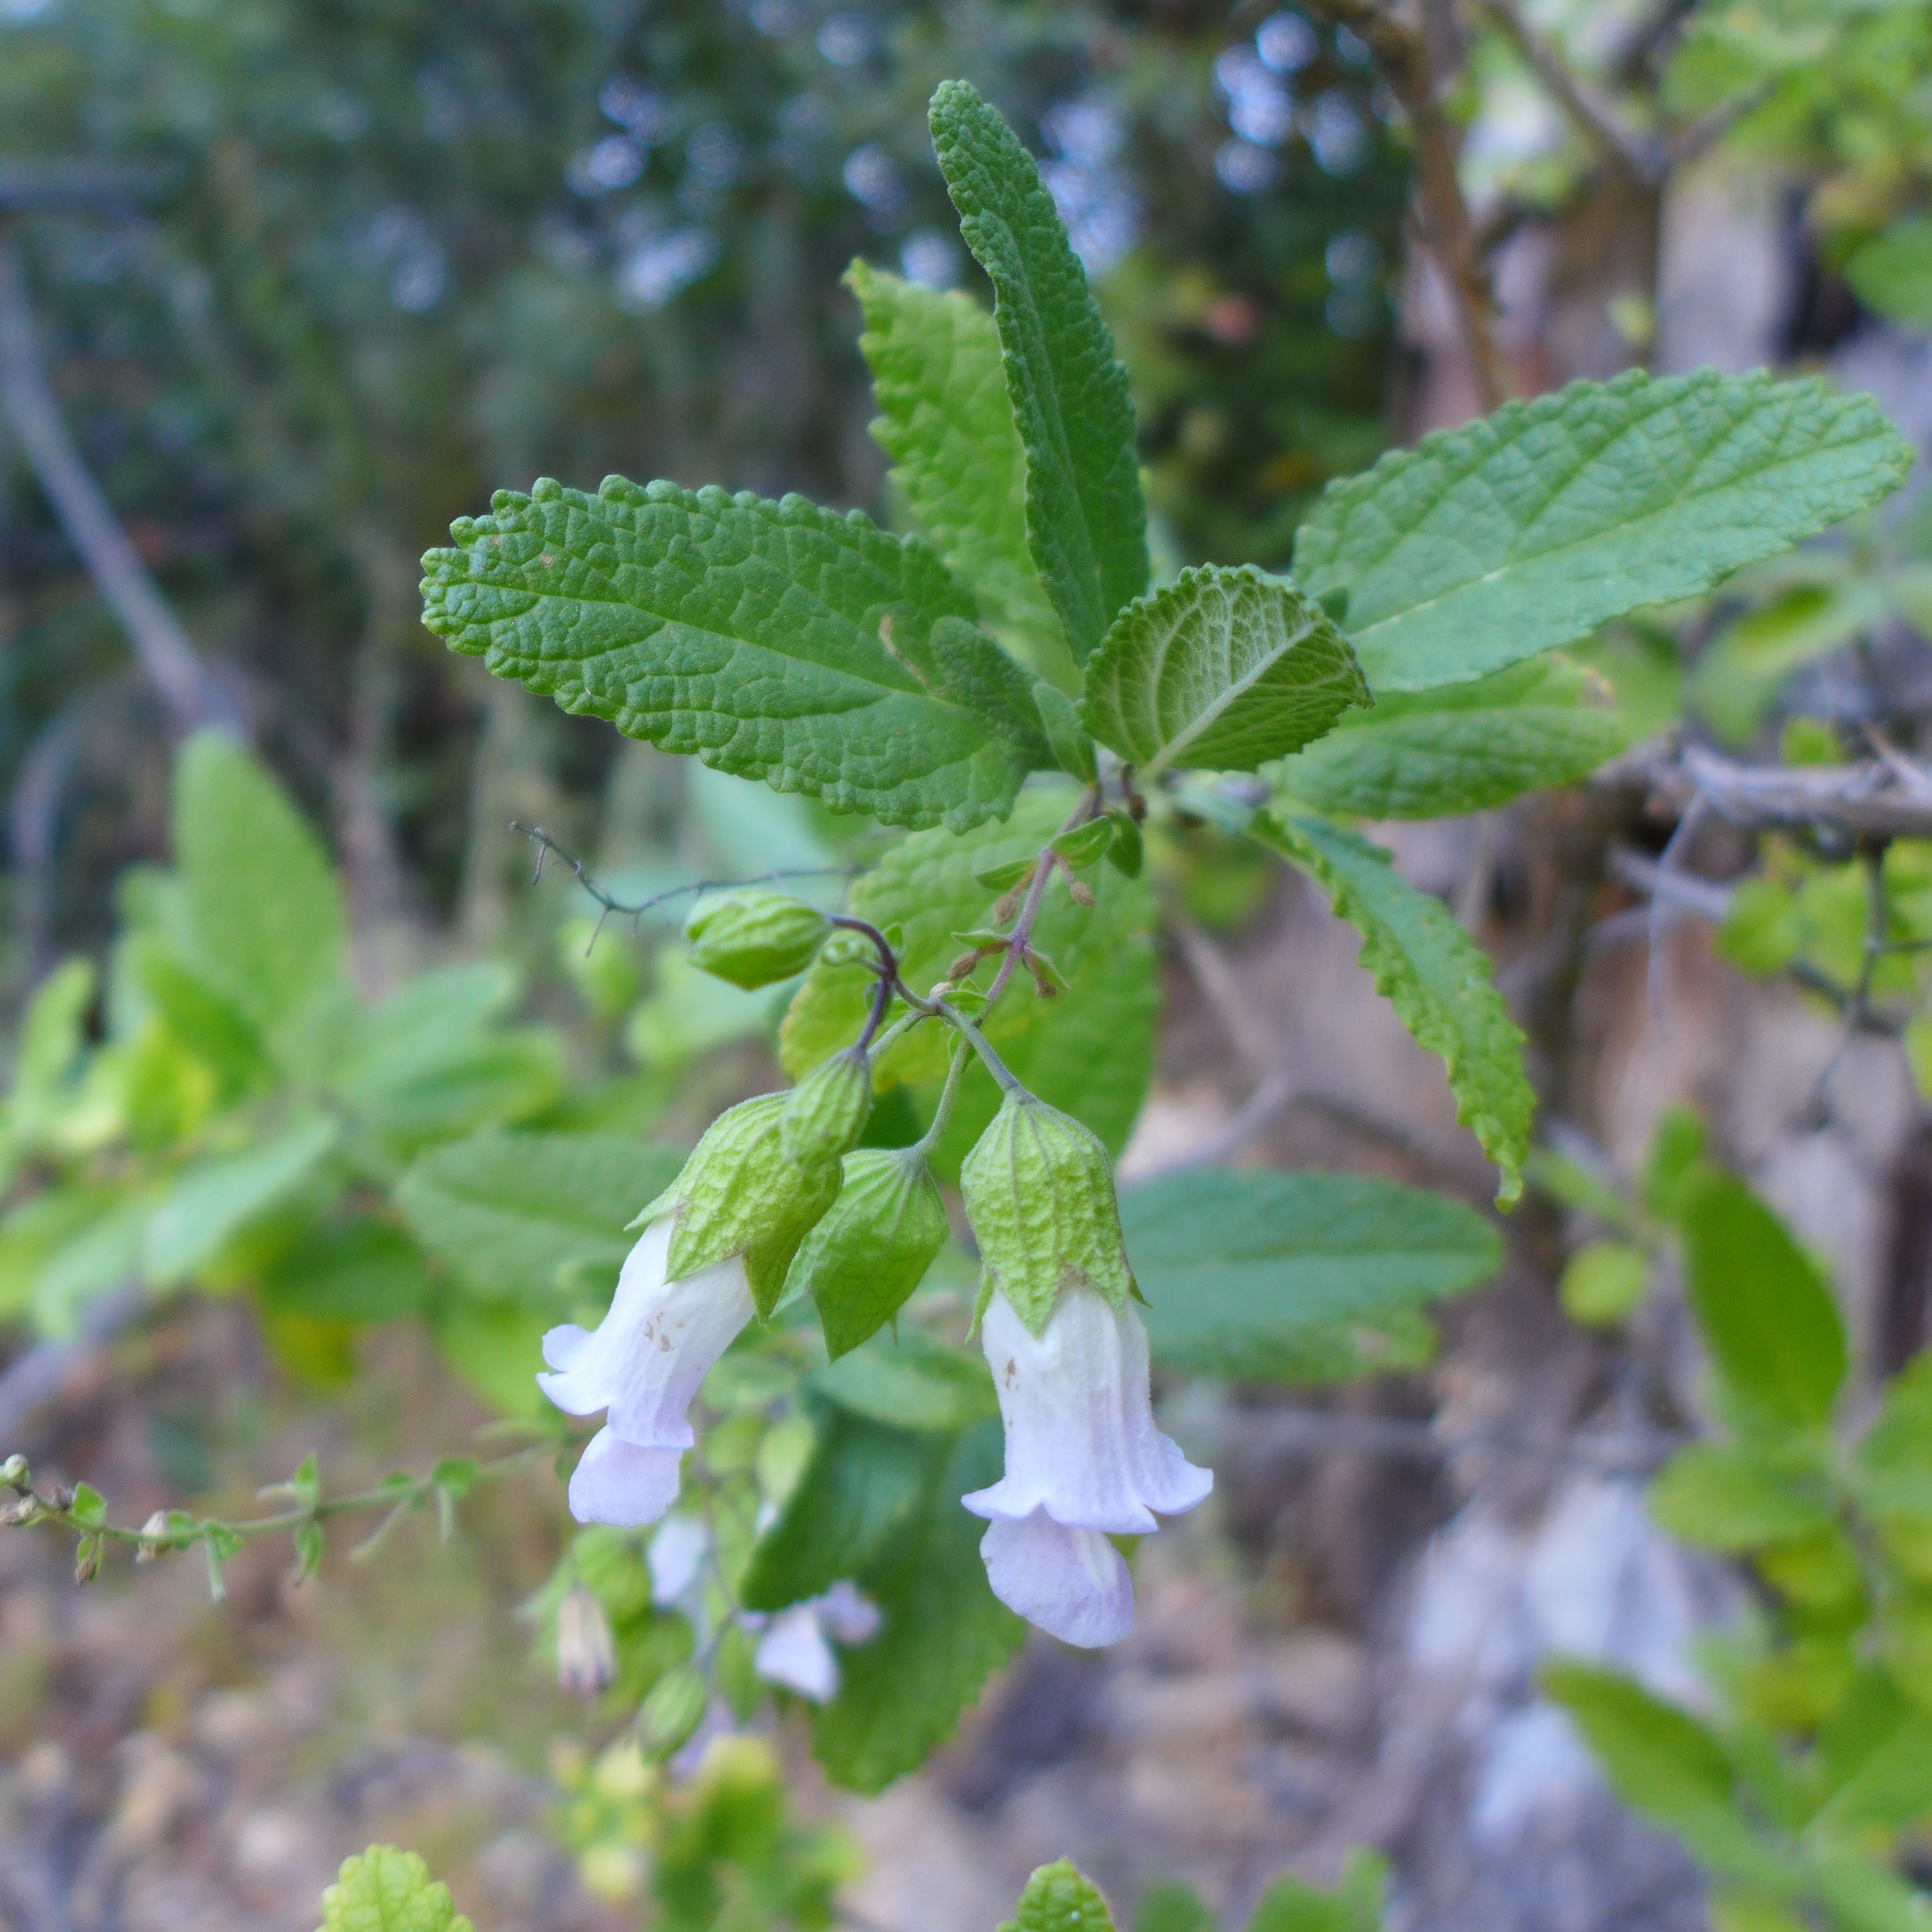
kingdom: Plantae
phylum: Tracheophyta
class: Magnoliopsida
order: Lamiales
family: Lamiaceae
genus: Lepechinia
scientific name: Lepechinia calycina
